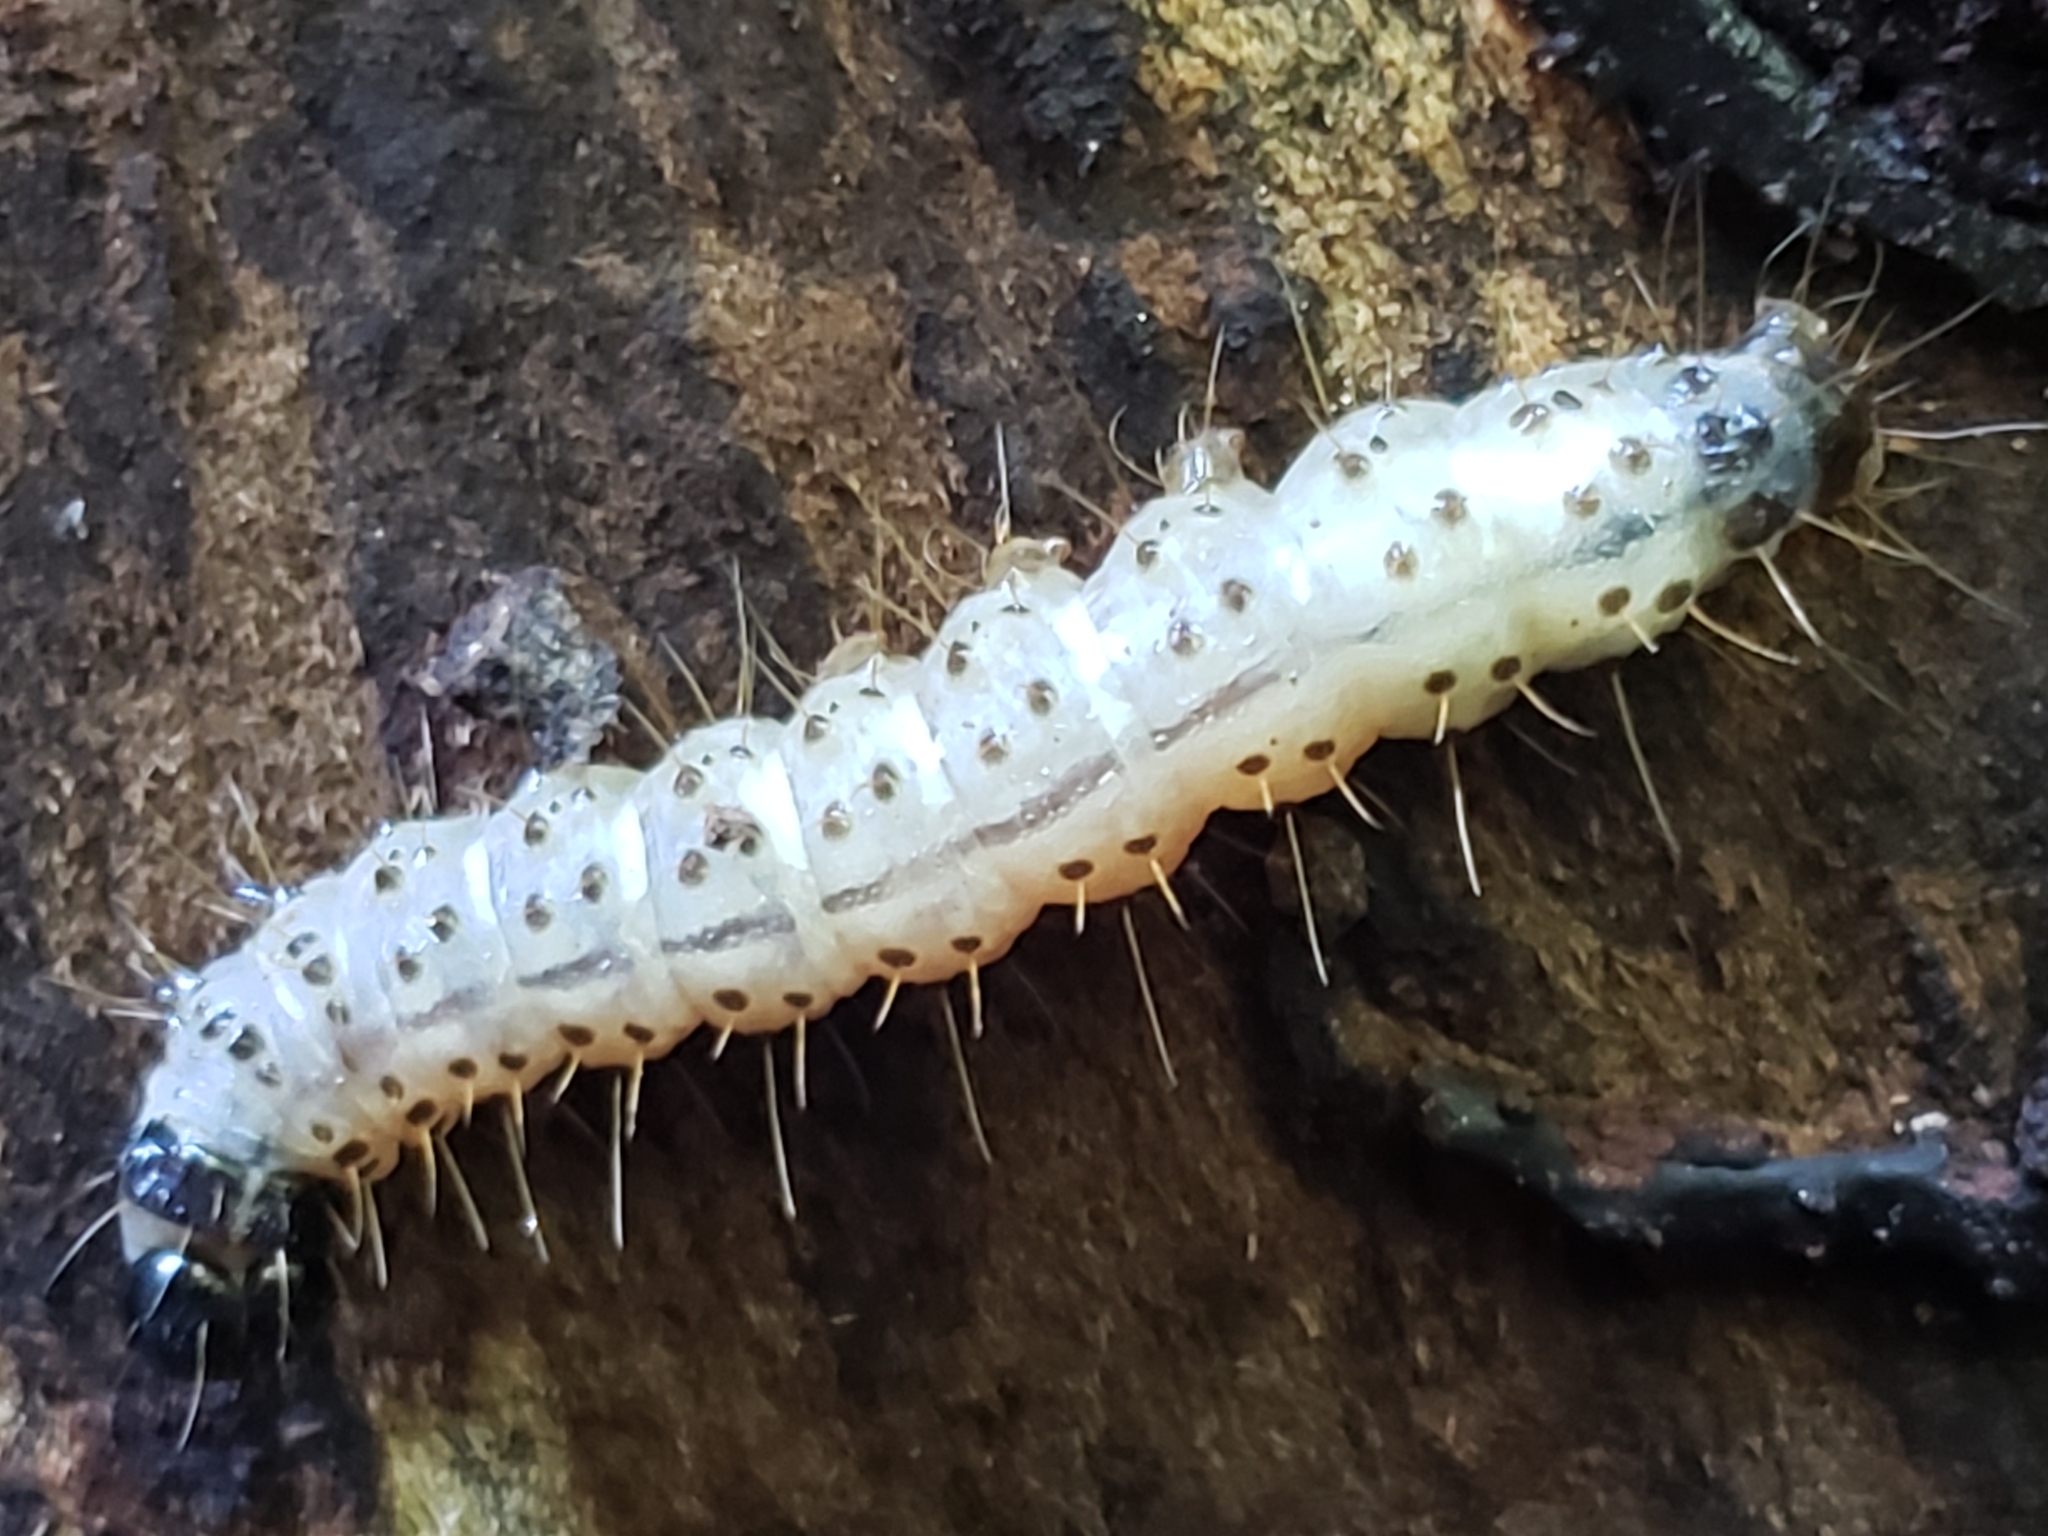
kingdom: Animalia
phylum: Arthropoda
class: Insecta
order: Lepidoptera
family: Erebidae
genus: Scolecocampa
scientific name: Scolecocampa liburna
